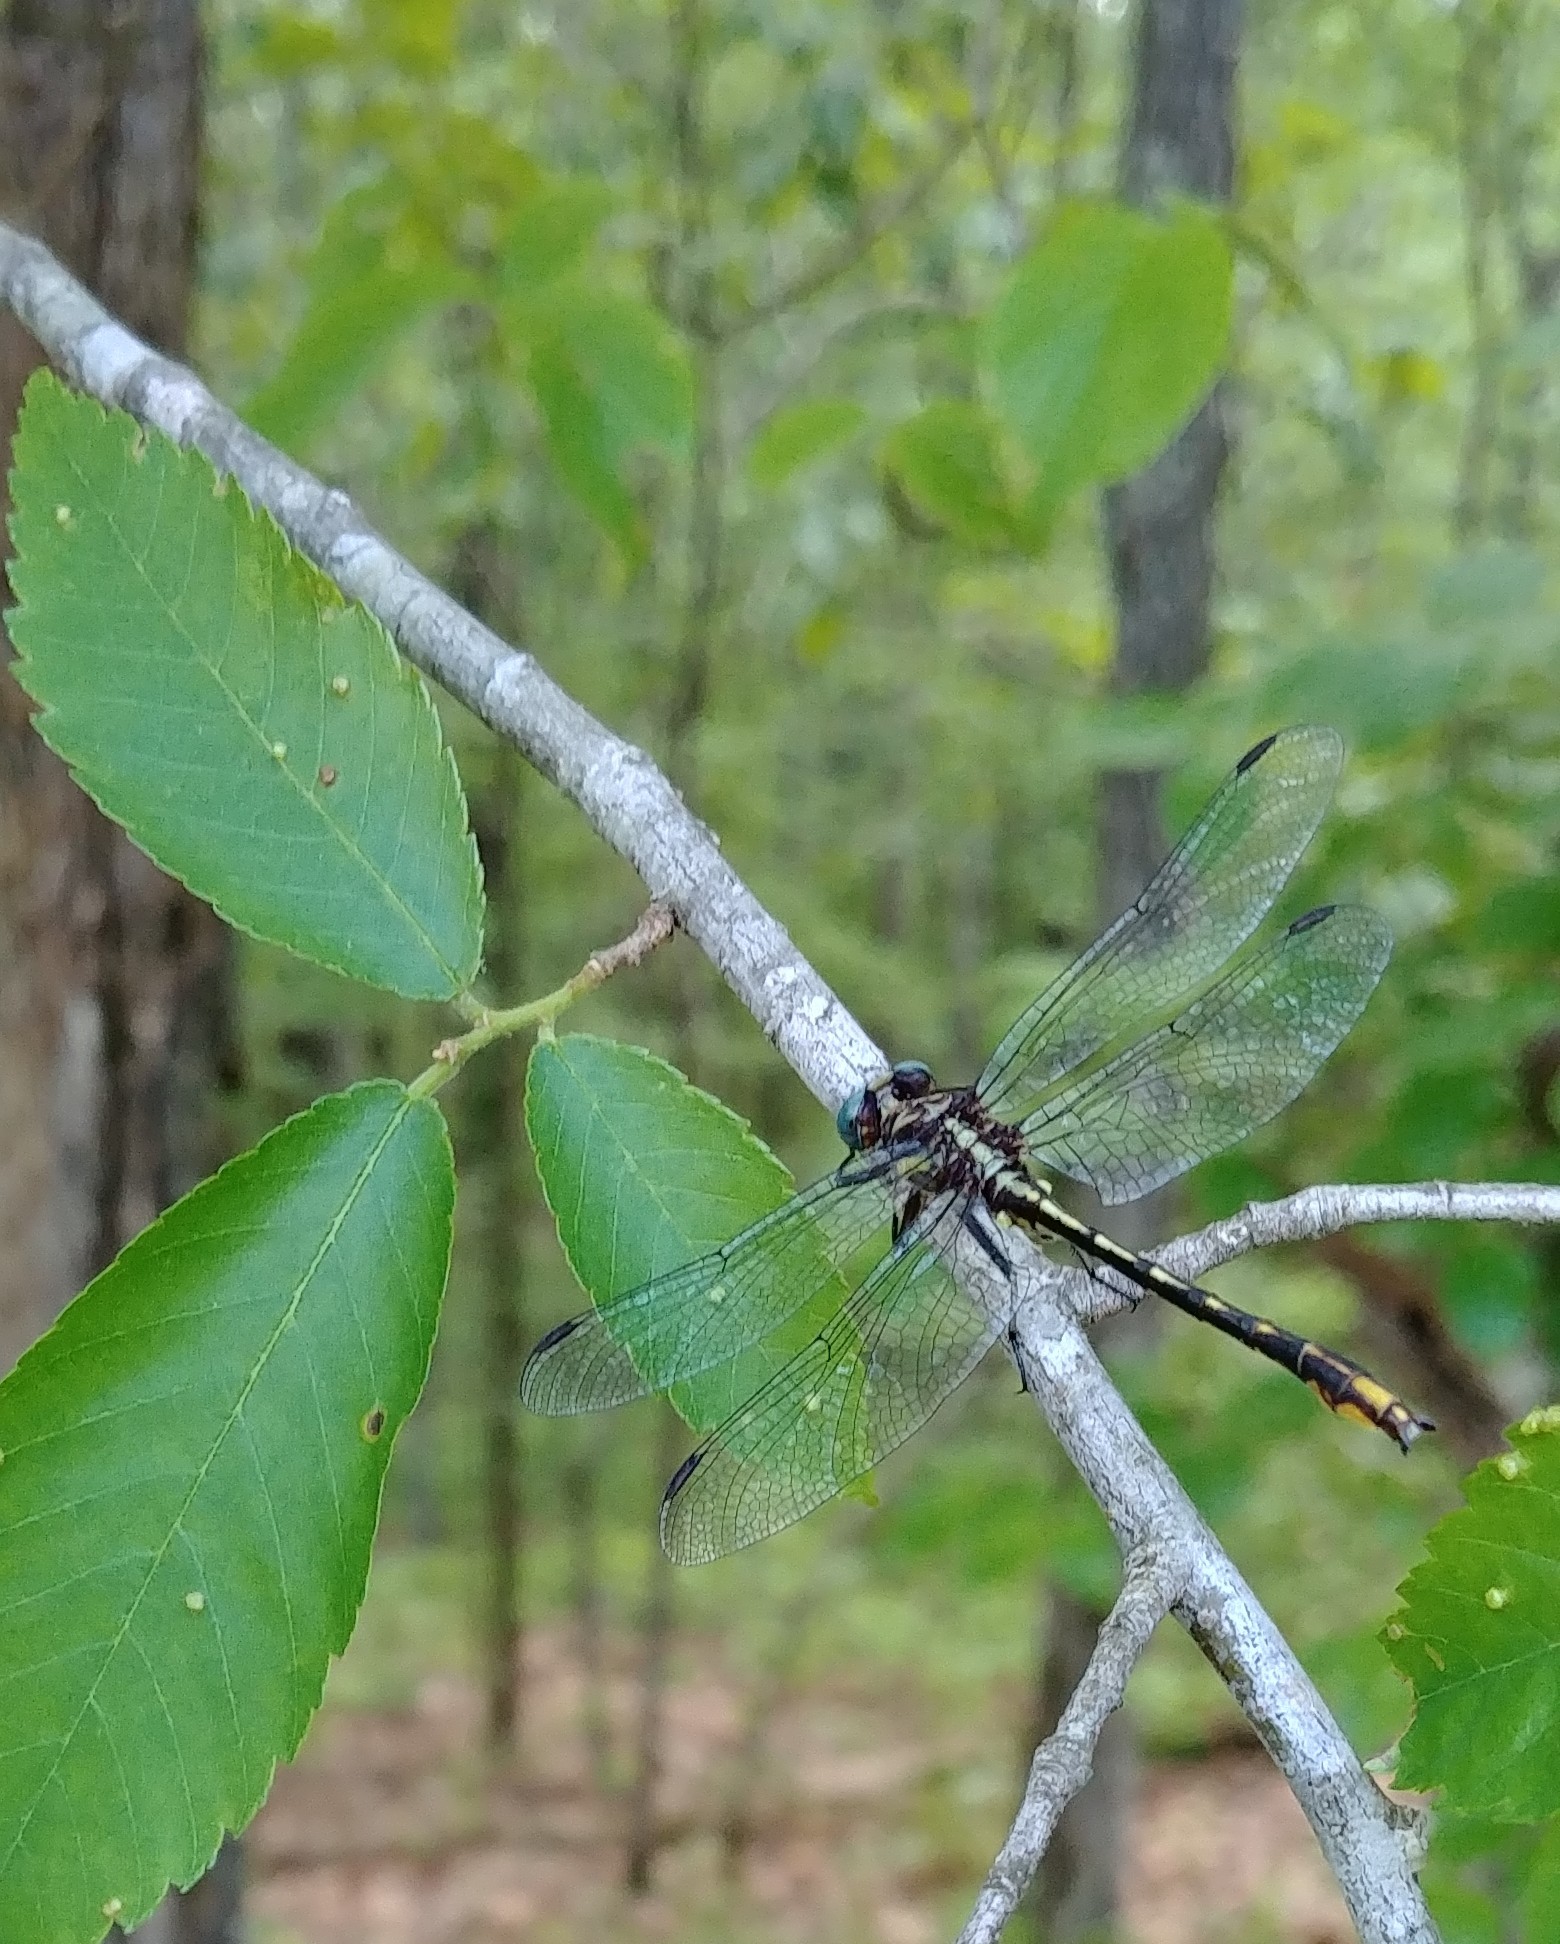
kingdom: Animalia
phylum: Arthropoda
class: Insecta
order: Odonata
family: Gomphidae
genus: Phanogomphus
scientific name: Phanogomphus exilis
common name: Lancet clubtail
